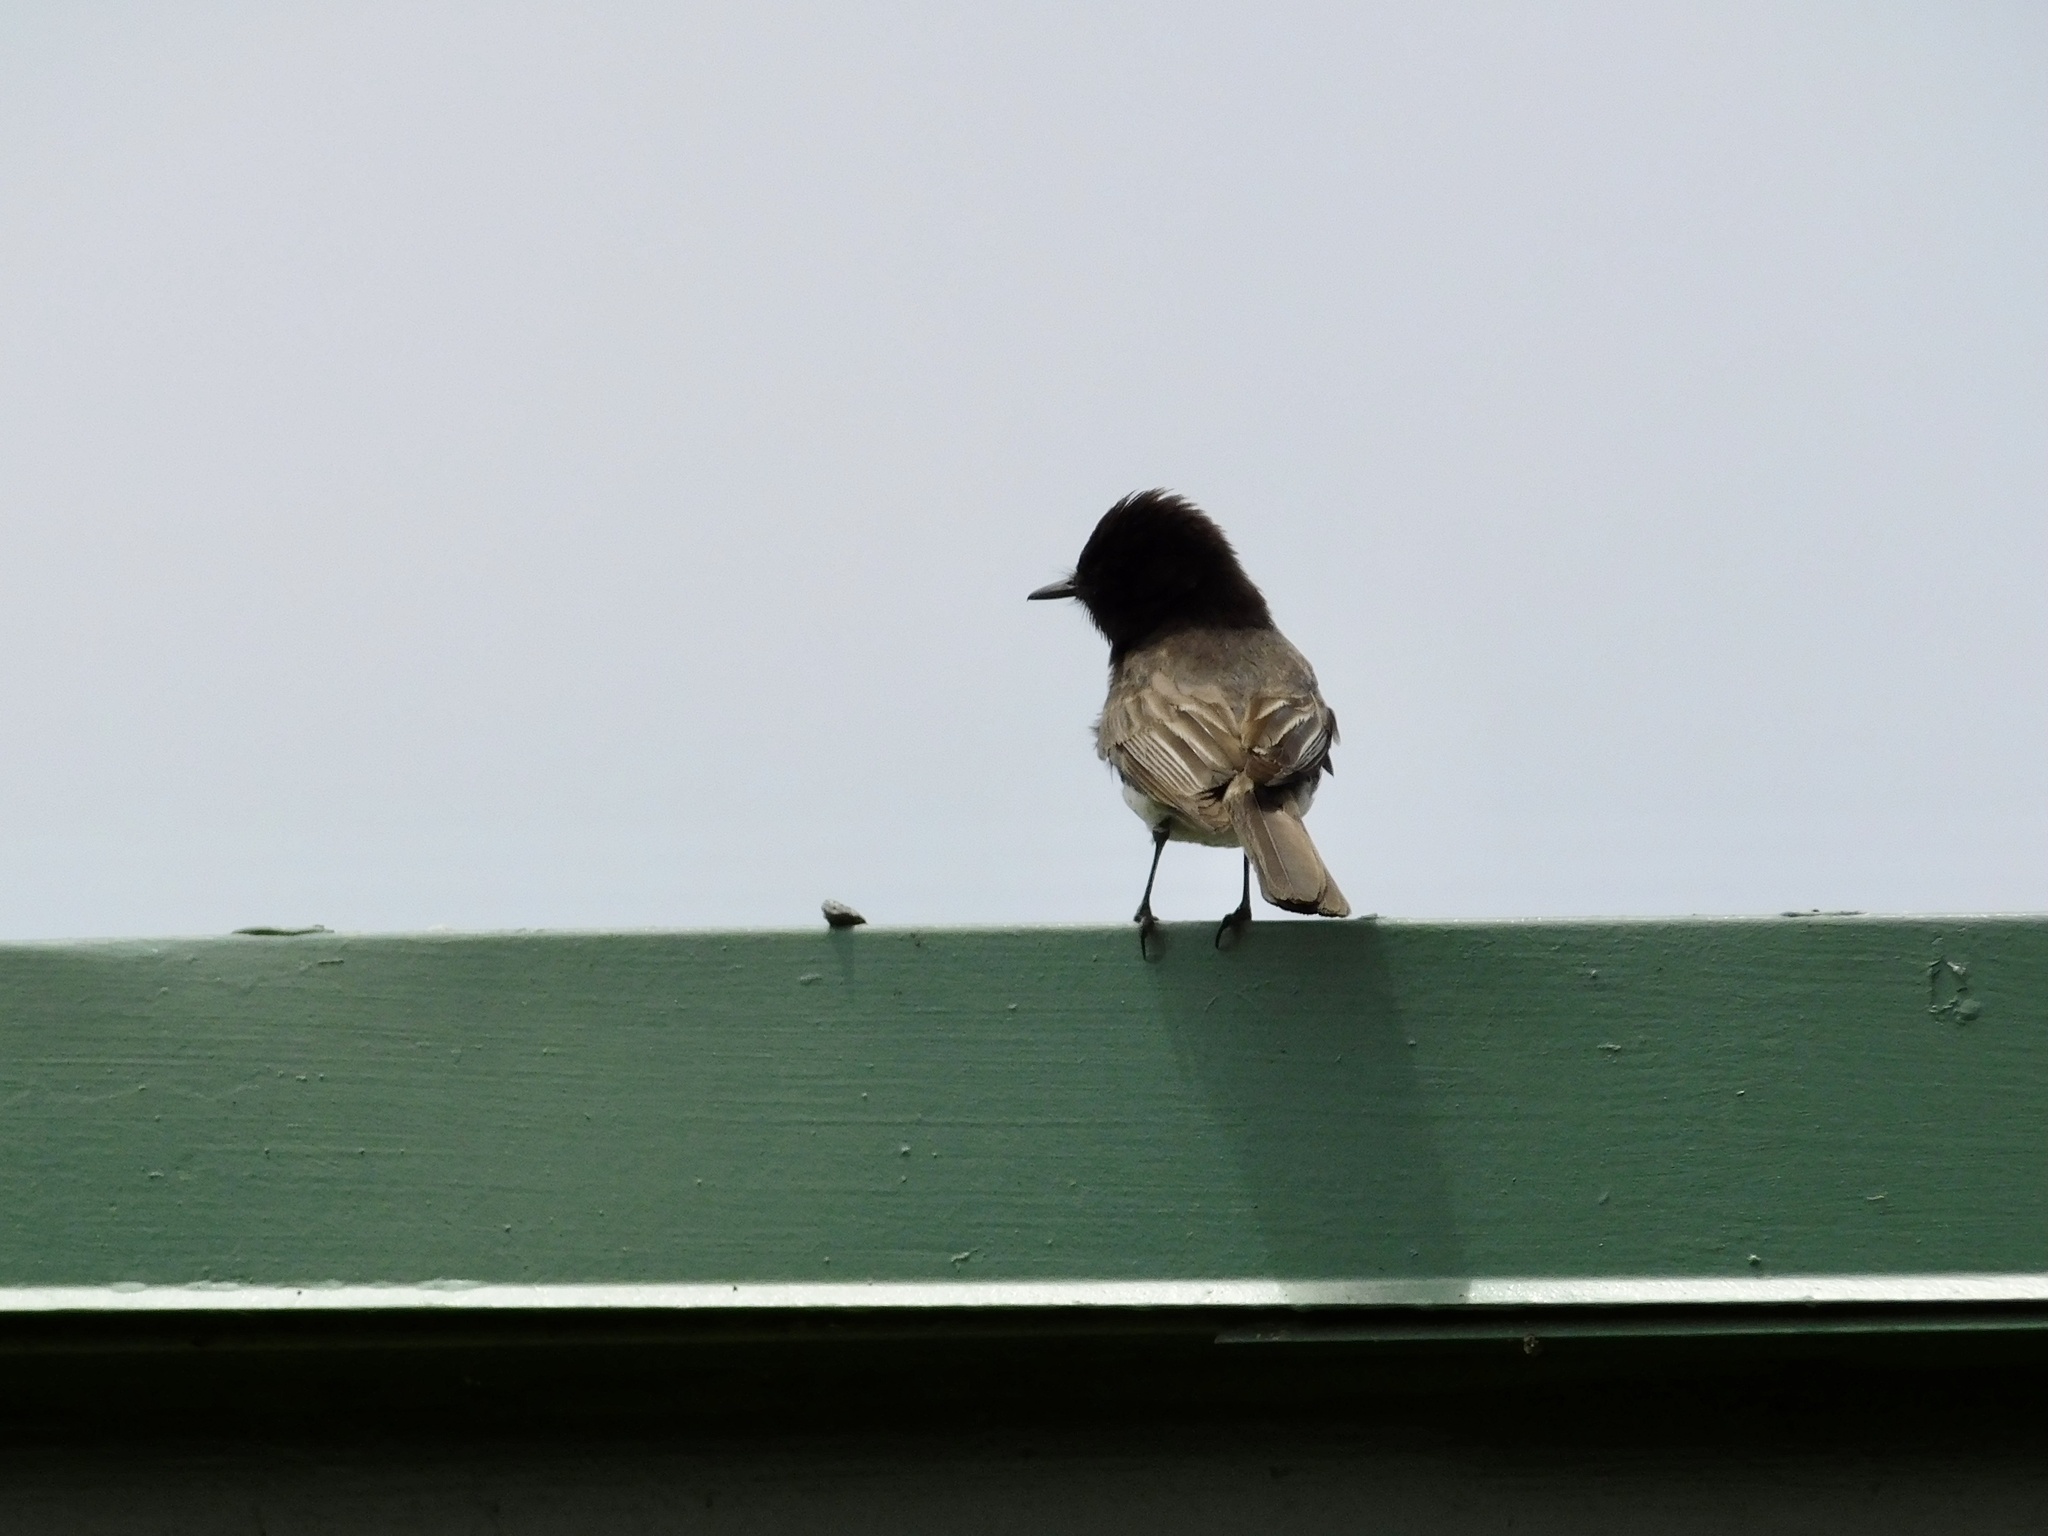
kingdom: Animalia
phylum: Chordata
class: Aves
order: Passeriformes
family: Tyrannidae
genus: Sayornis
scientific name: Sayornis nigricans
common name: Black phoebe
